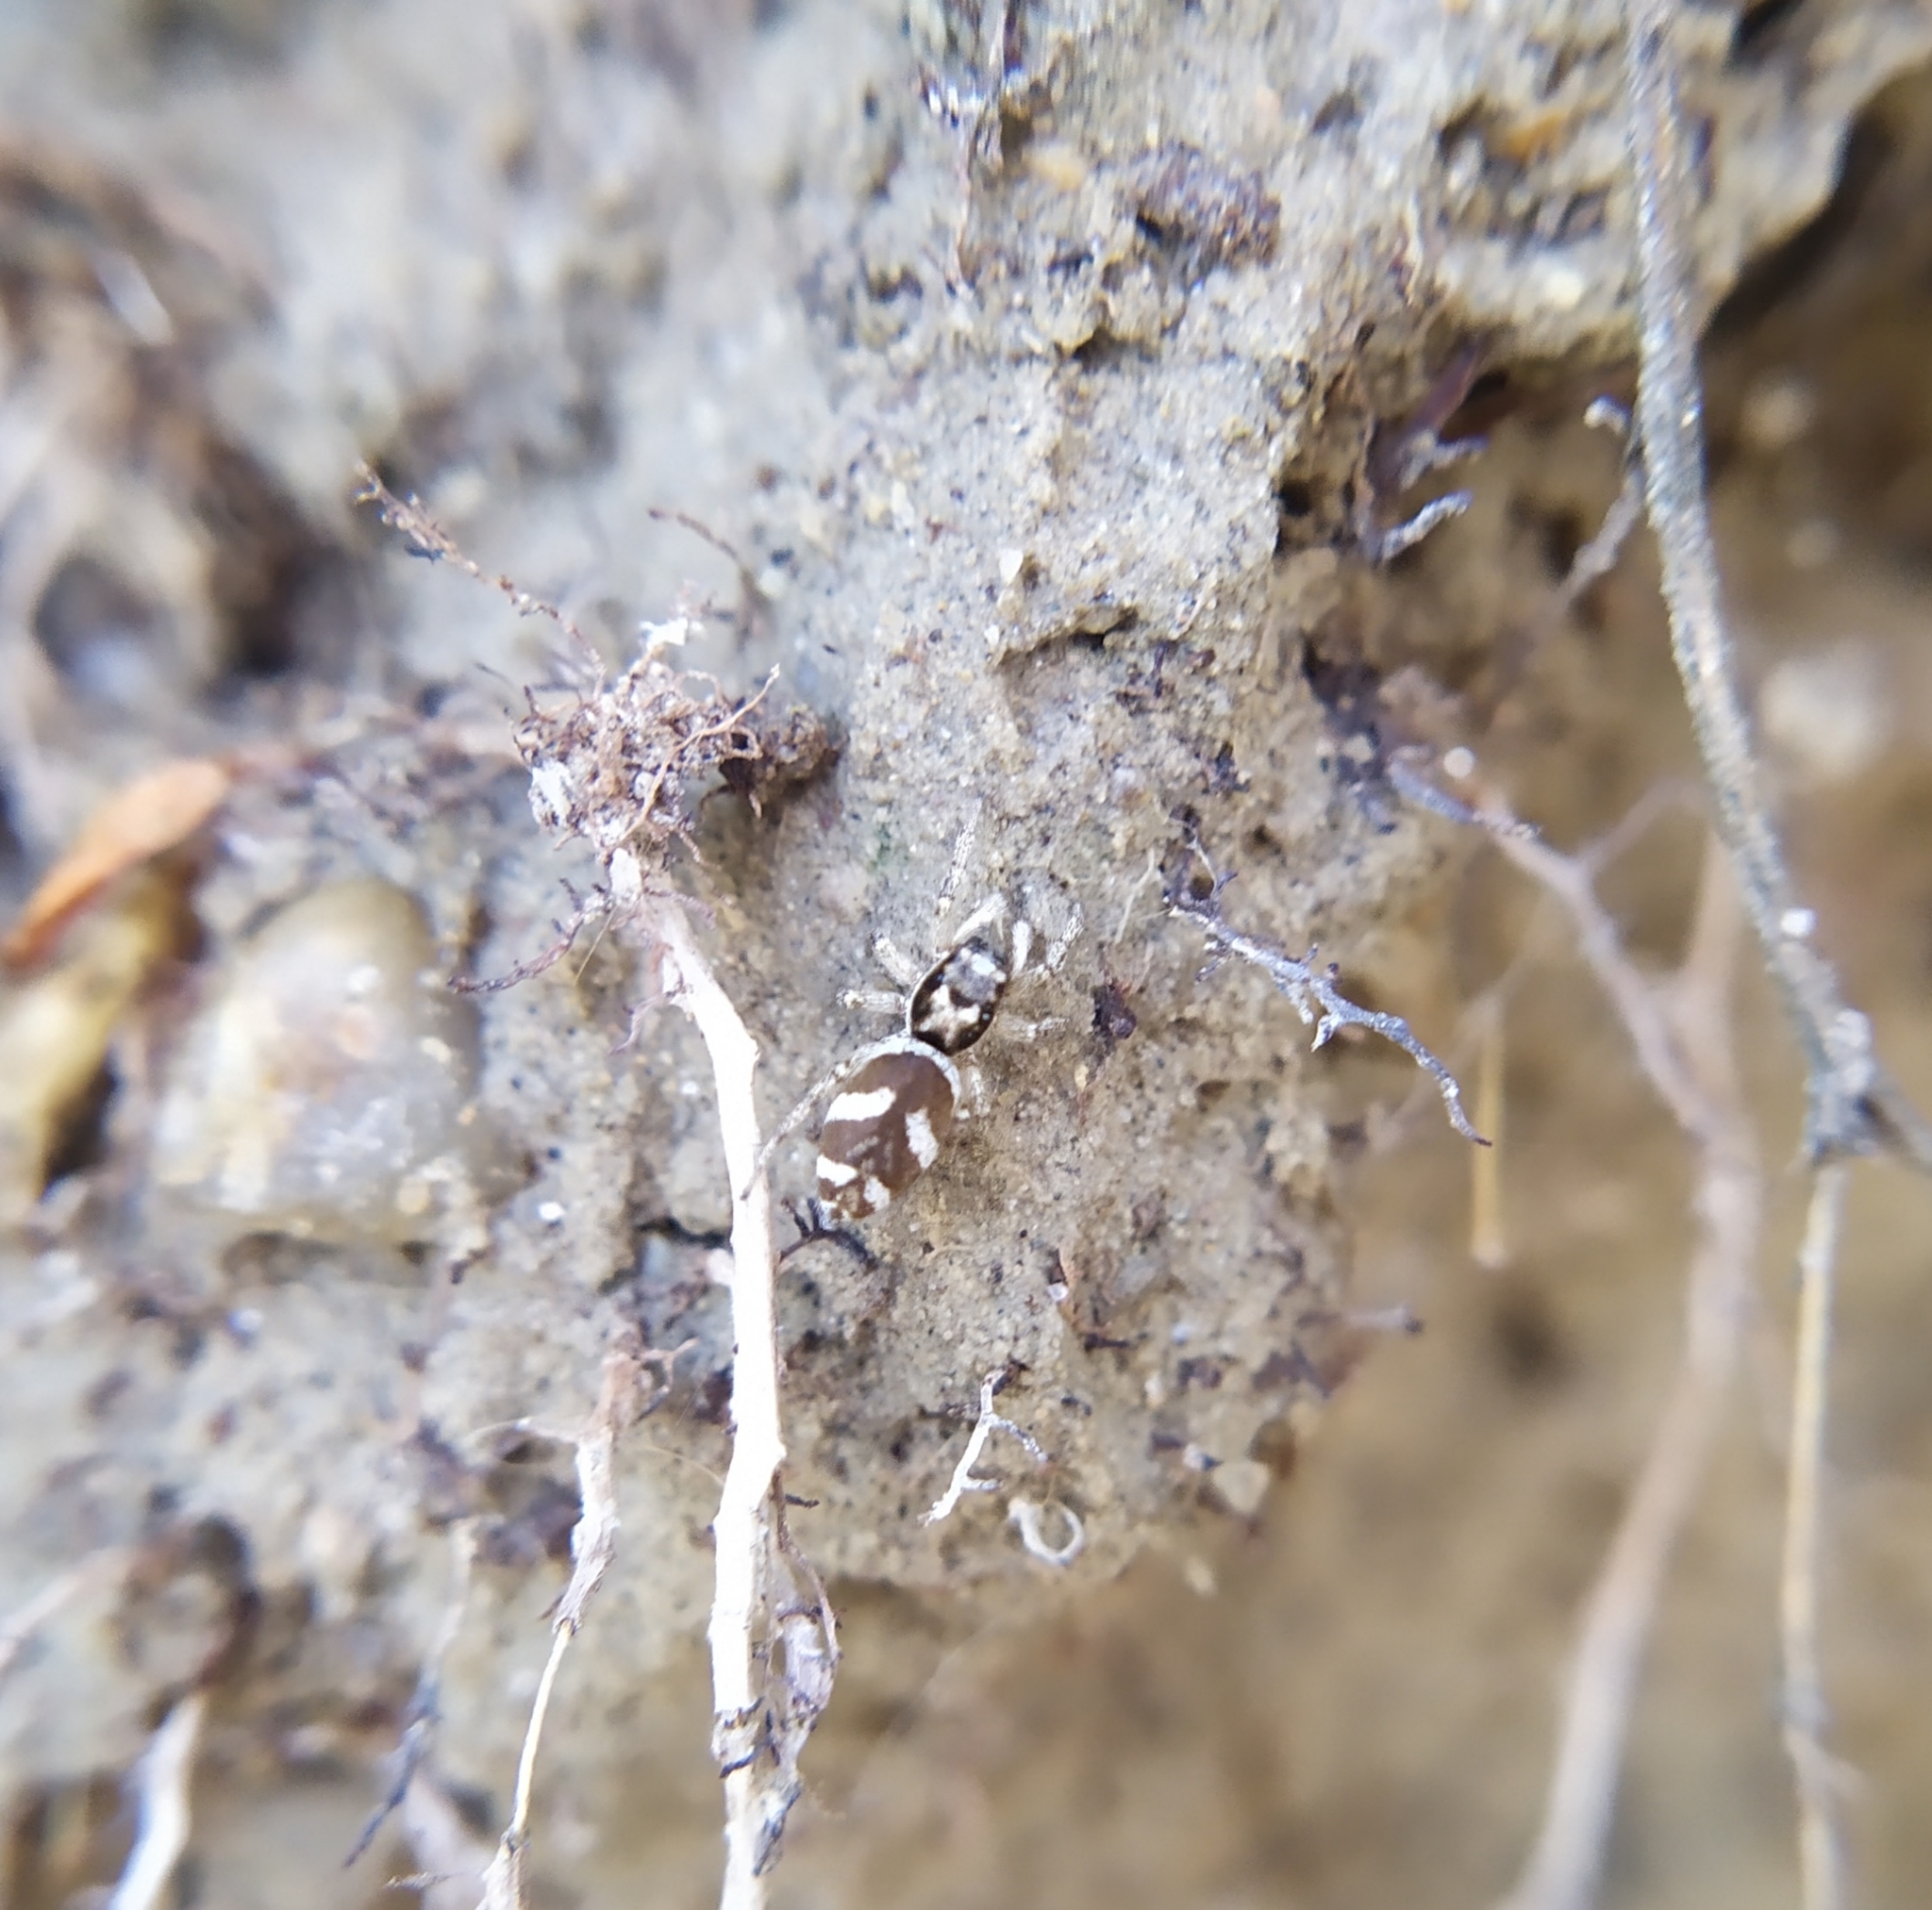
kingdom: Animalia
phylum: Arthropoda
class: Arachnida
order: Araneae
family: Salticidae
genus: Salticus
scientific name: Salticus scenicus
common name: Zebra jumper
